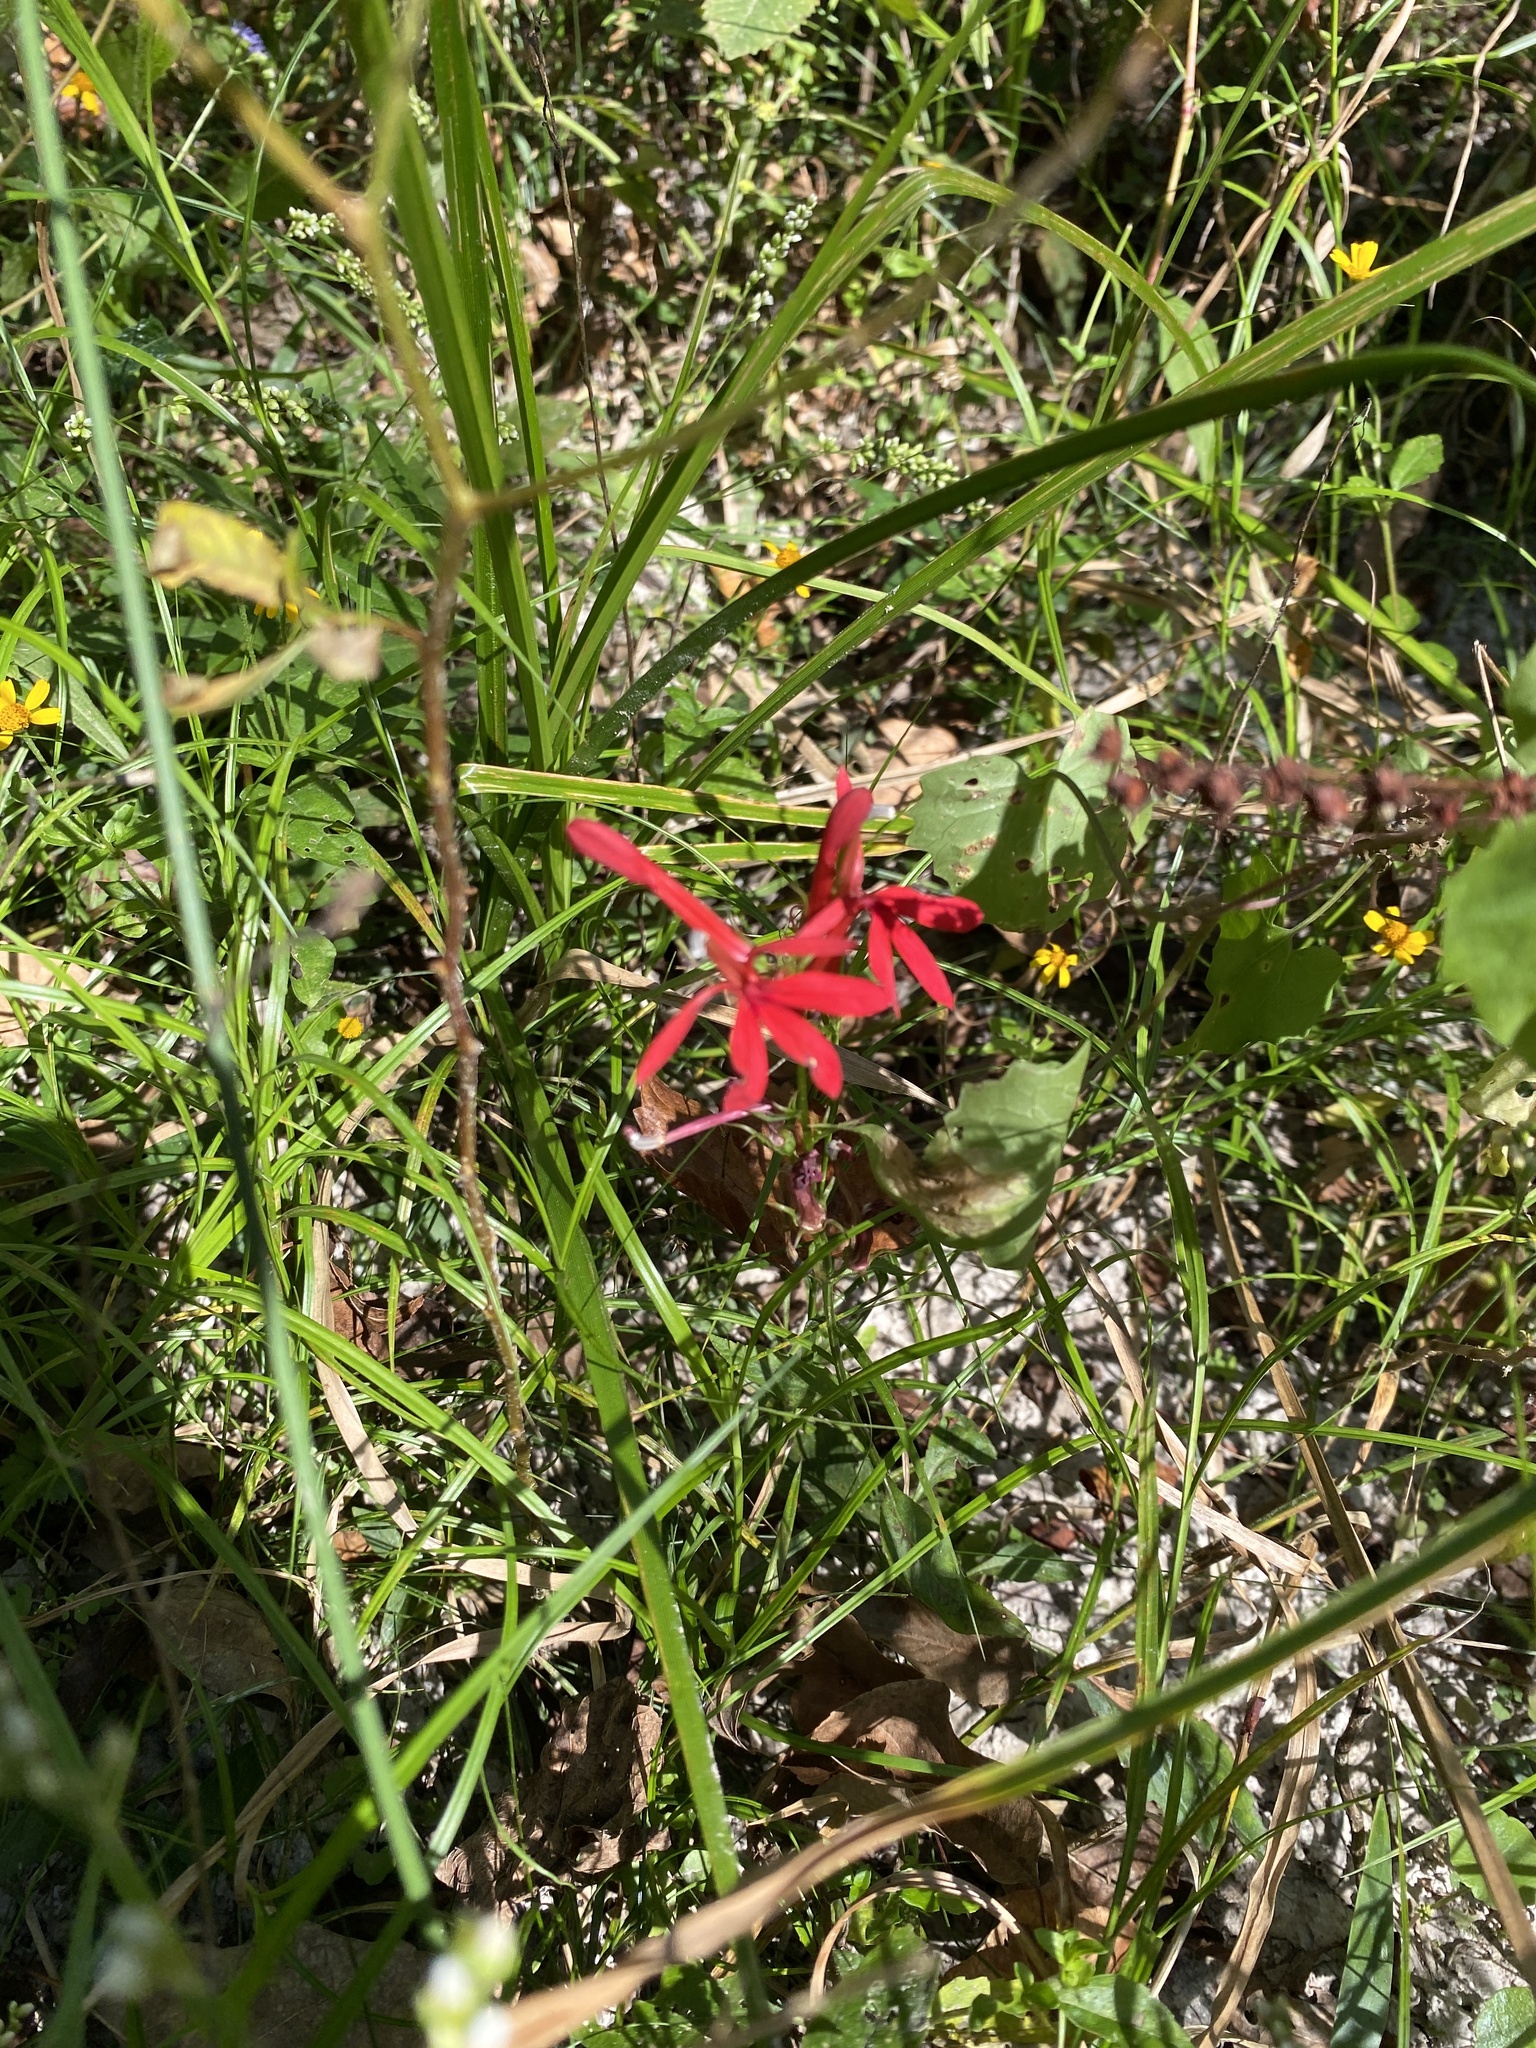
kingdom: Plantae
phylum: Tracheophyta
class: Magnoliopsida
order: Asterales
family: Campanulaceae
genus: Lobelia
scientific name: Lobelia cardinalis
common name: Cardinal flower
